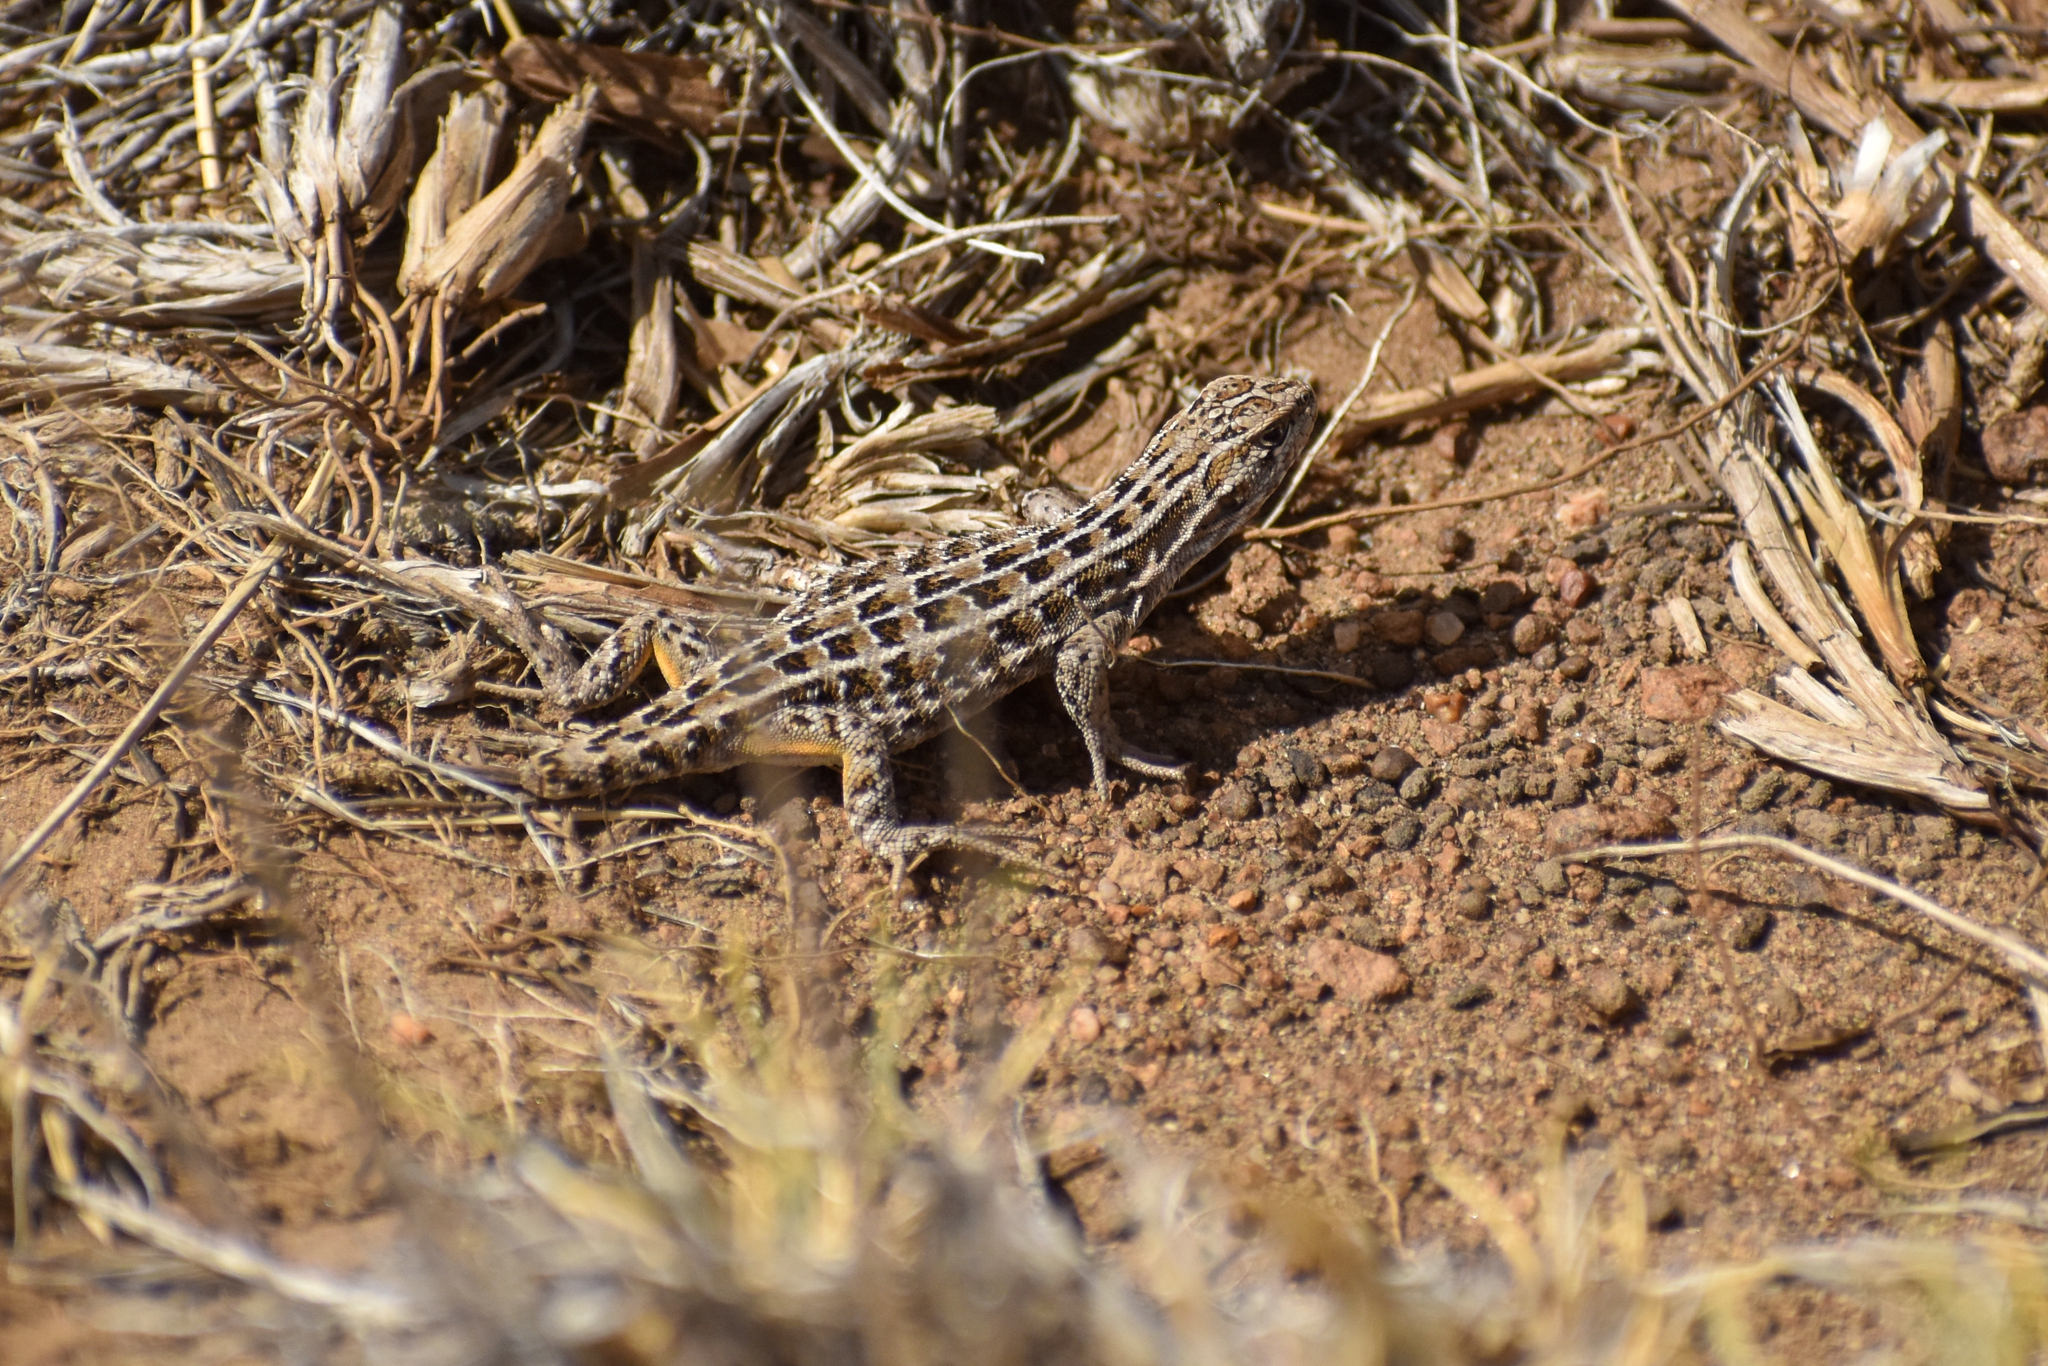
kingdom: Animalia
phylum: Chordata
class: Squamata
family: Liolaemidae
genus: Liolaemus
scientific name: Liolaemus avilai
